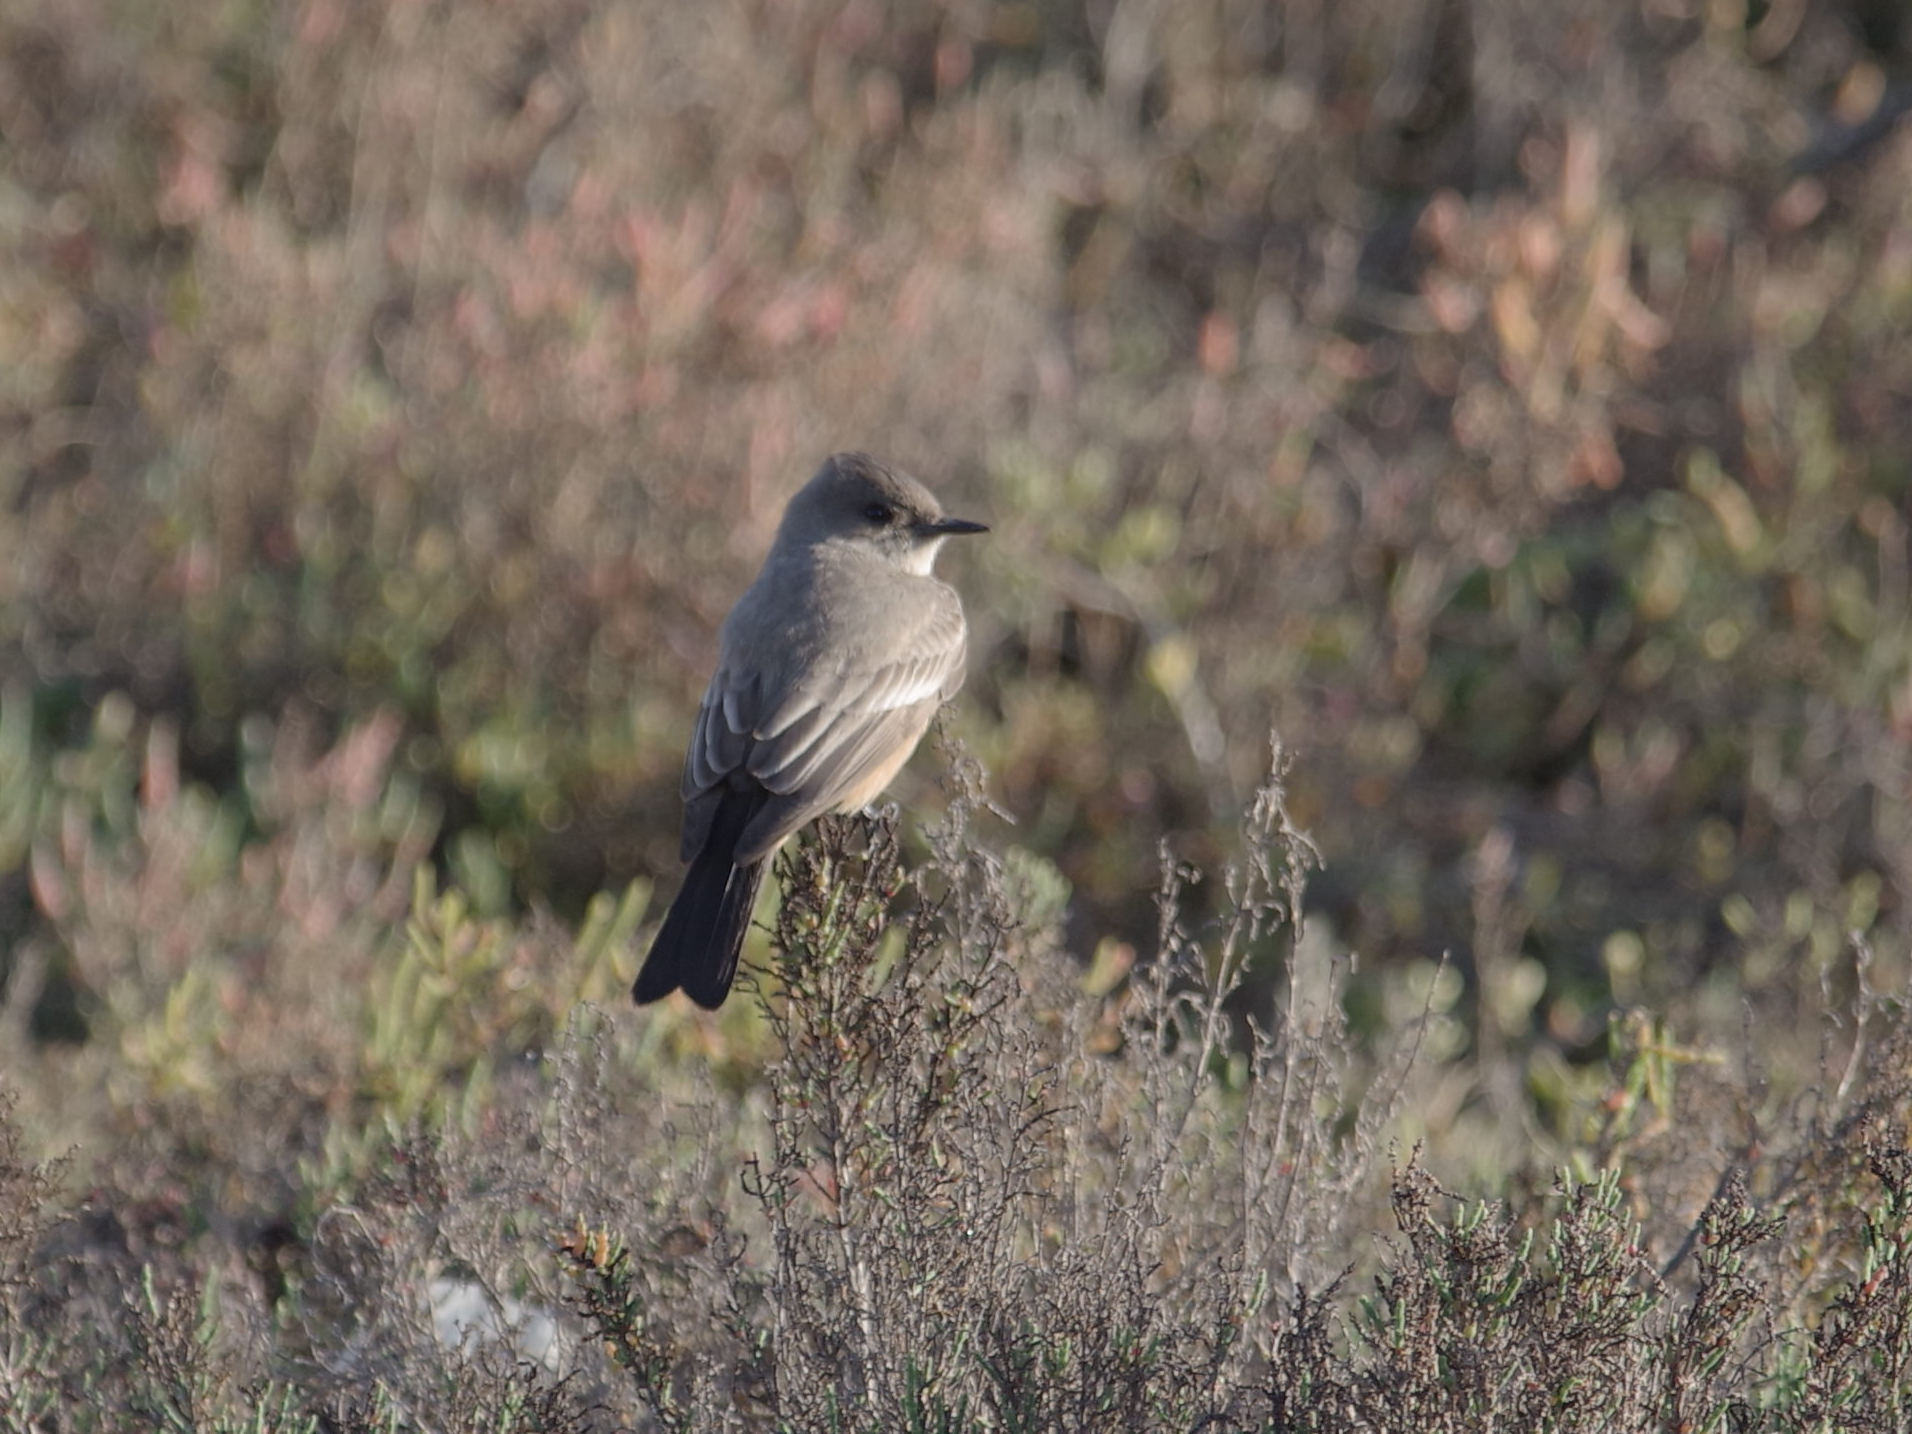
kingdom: Animalia
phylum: Chordata
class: Aves
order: Passeriformes
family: Tyrannidae
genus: Sayornis
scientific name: Sayornis saya
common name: Say's phoebe
